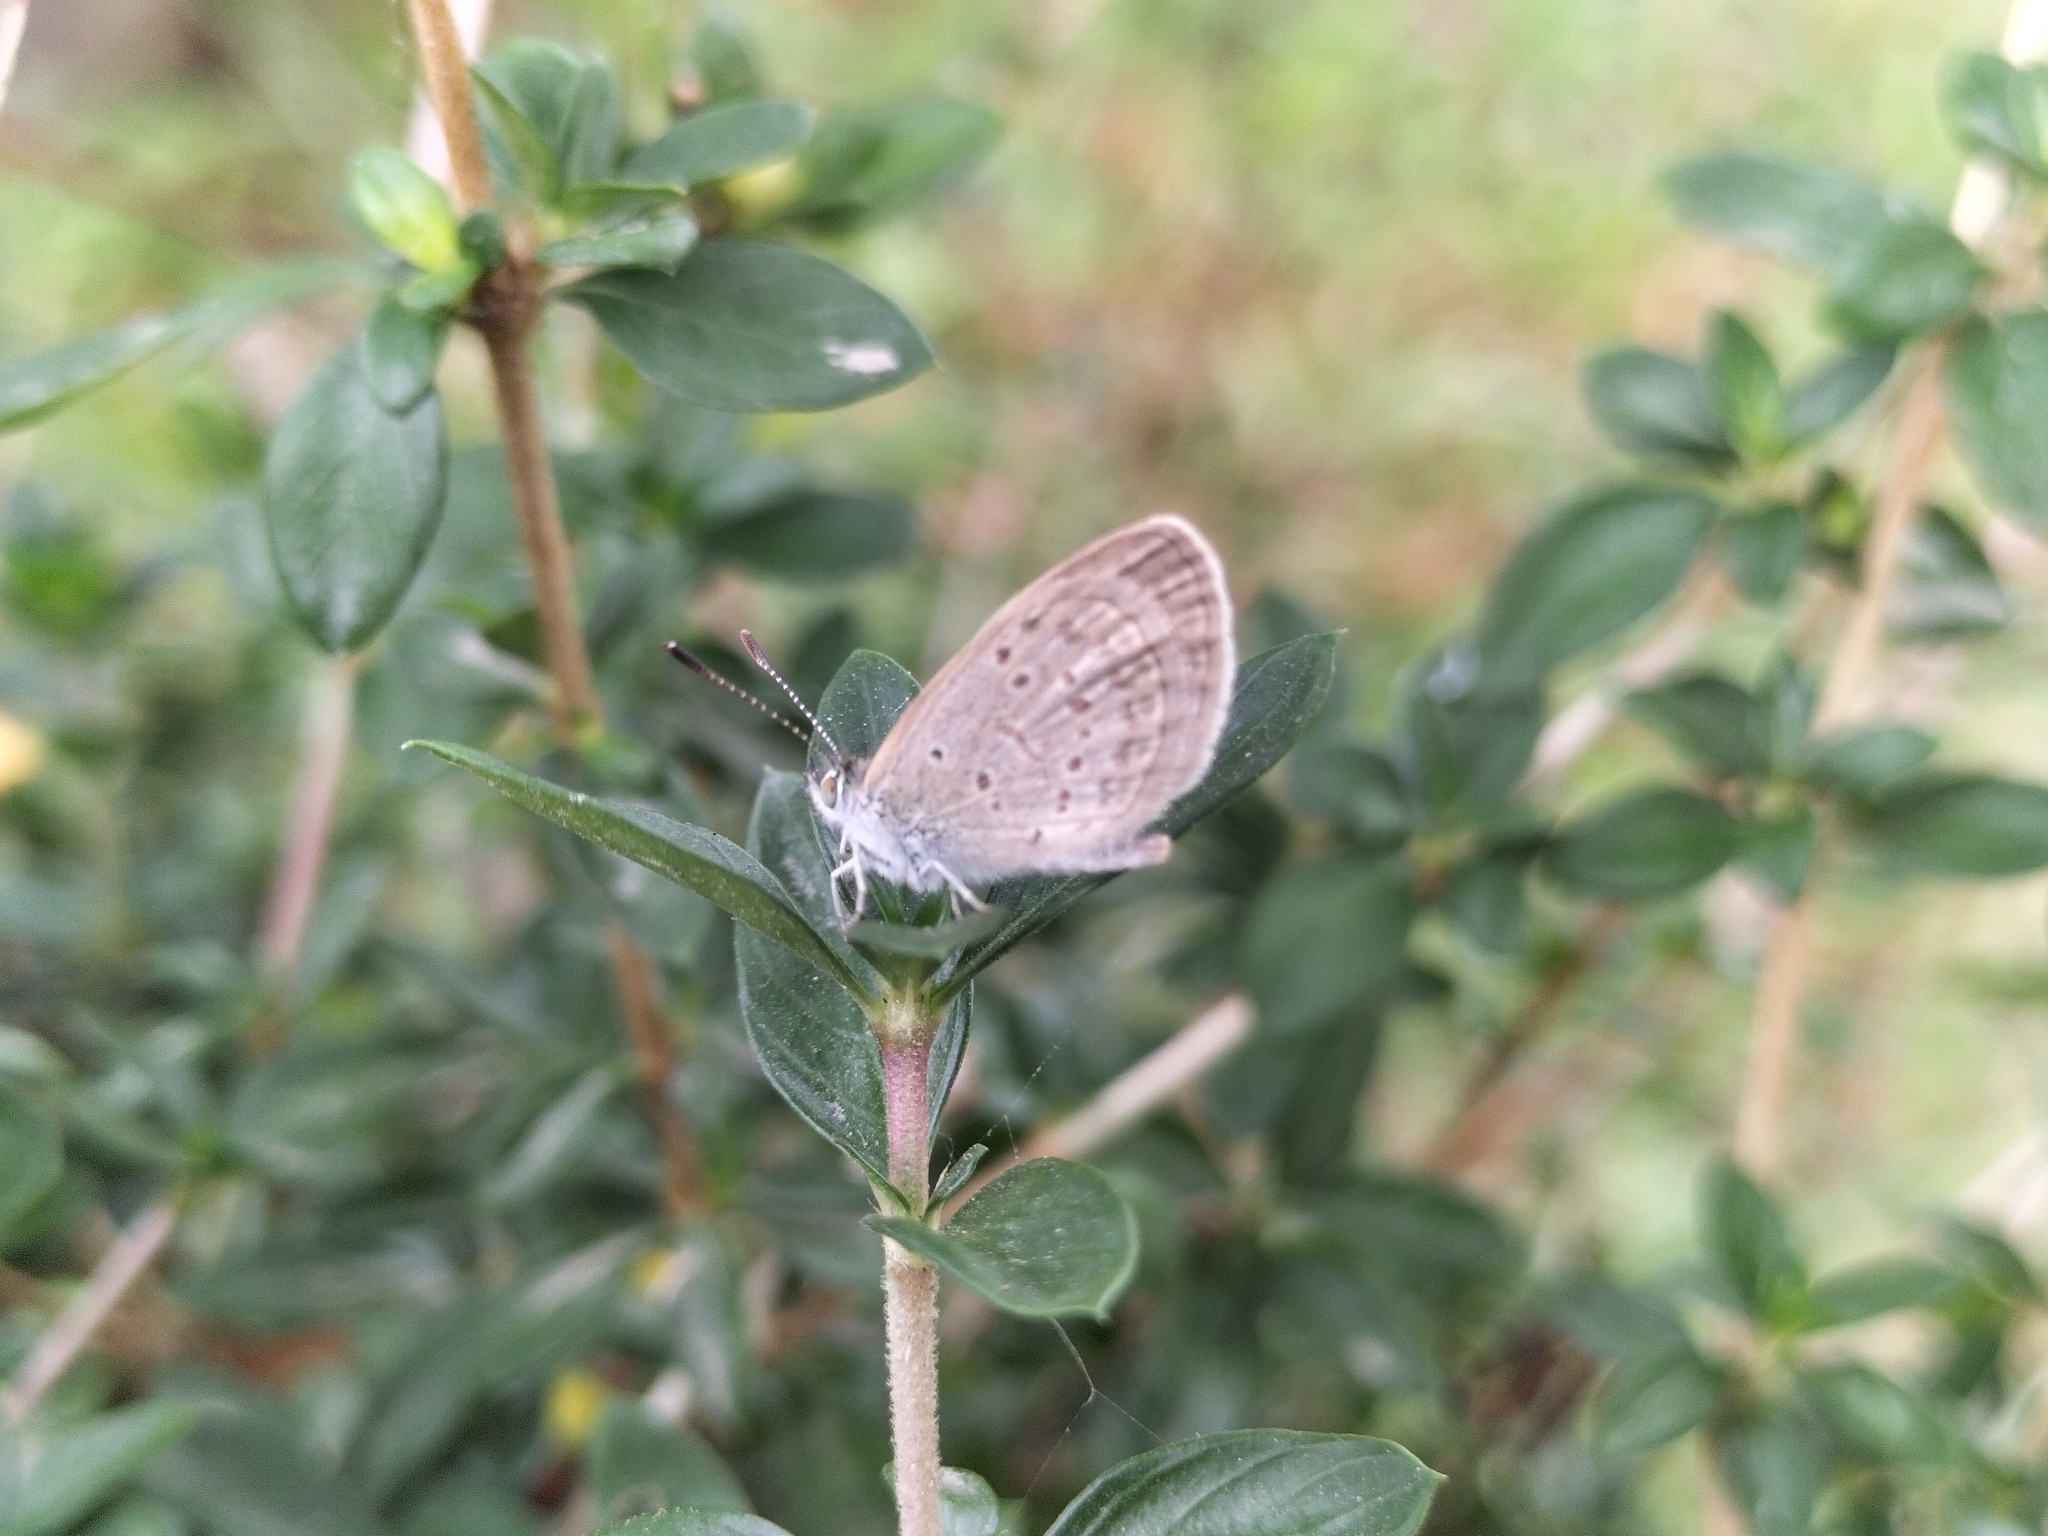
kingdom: Animalia
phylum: Arthropoda
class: Insecta
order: Lepidoptera
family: Lycaenidae
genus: Zizina
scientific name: Zizina otis
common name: Lesser grass blue
